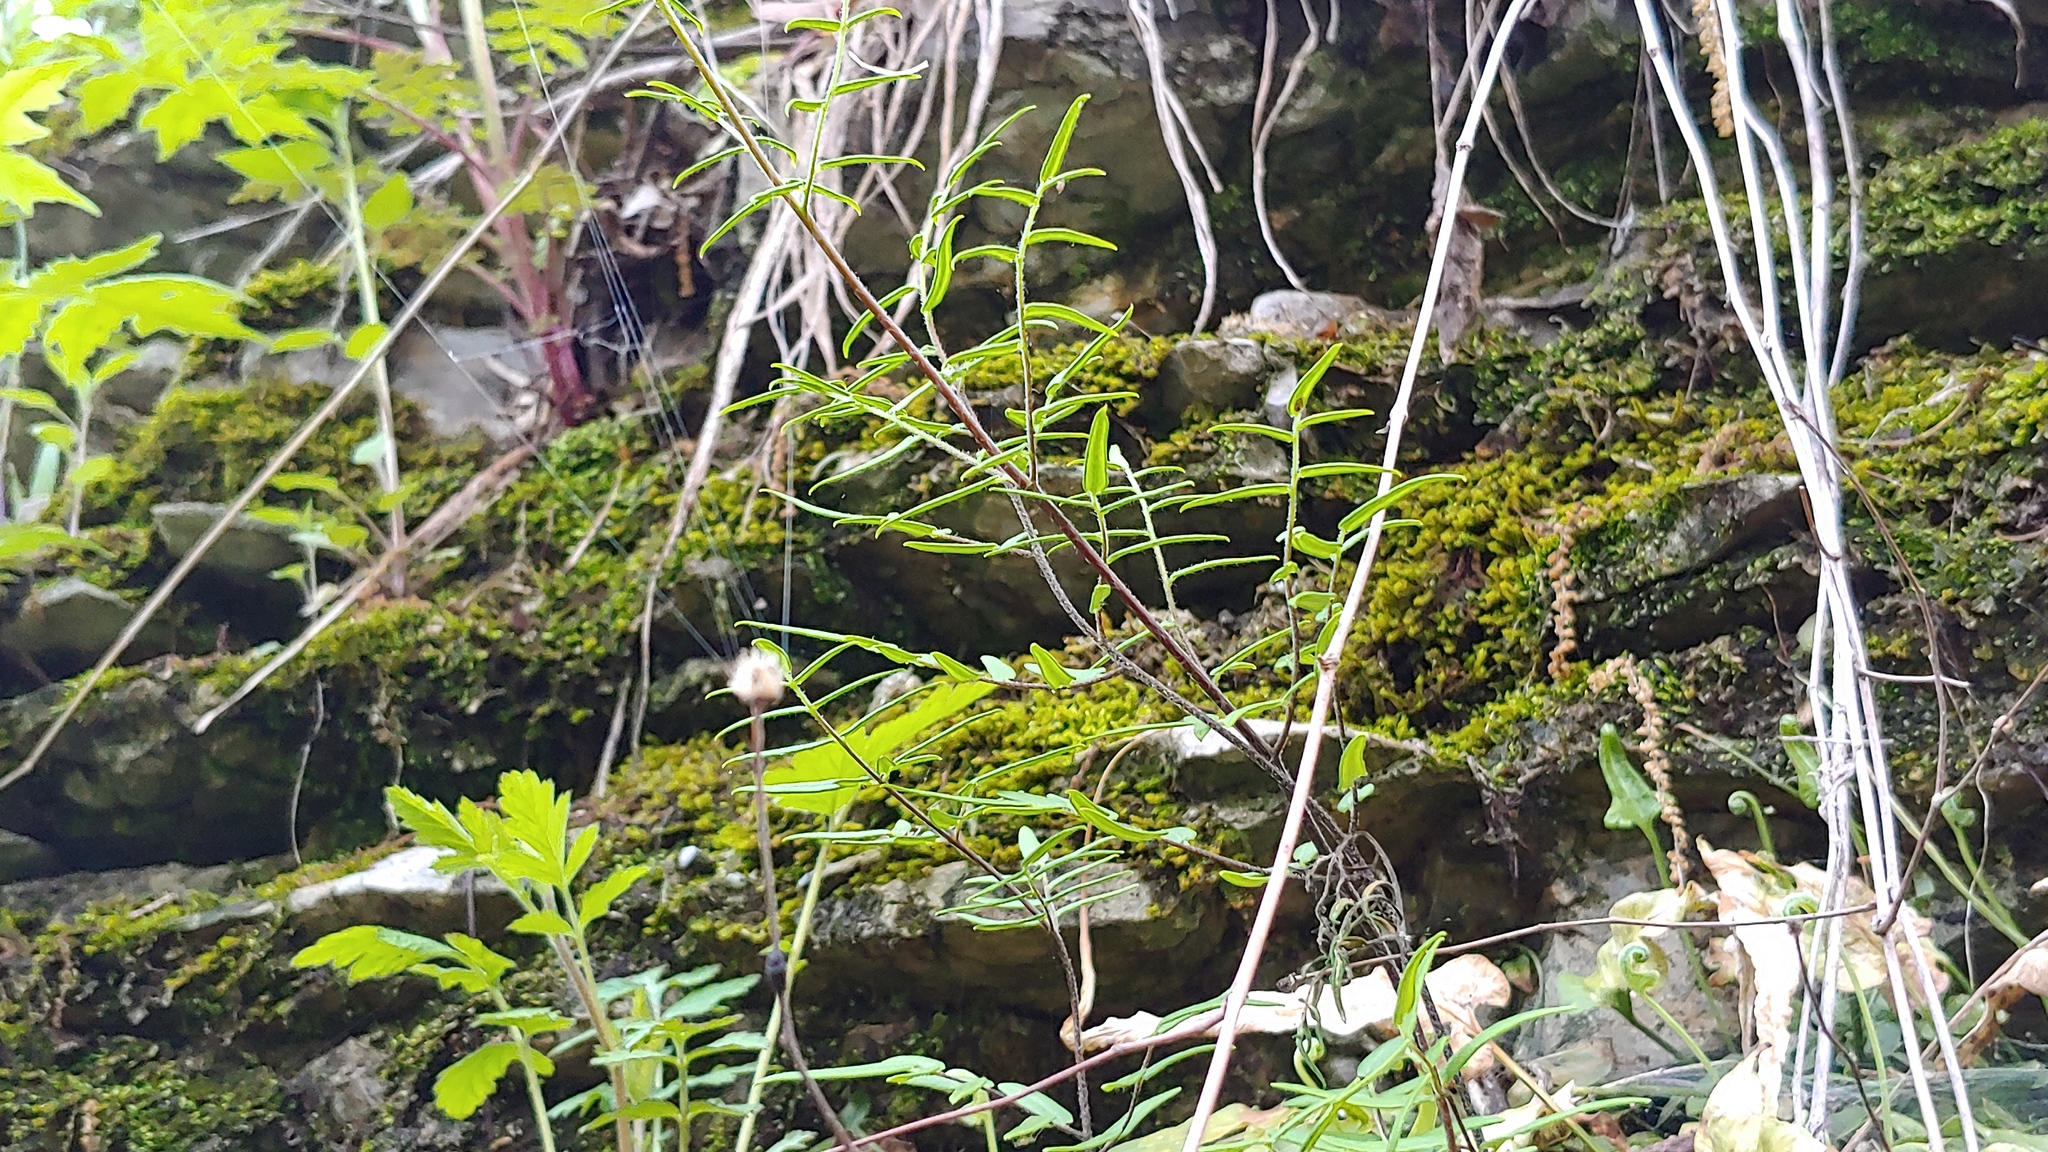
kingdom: Plantae
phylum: Tracheophyta
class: Polypodiopsida
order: Polypodiales
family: Pteridaceae
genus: Pellaea
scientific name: Pellaea atropurpurea
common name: Hairy cliffbrake
